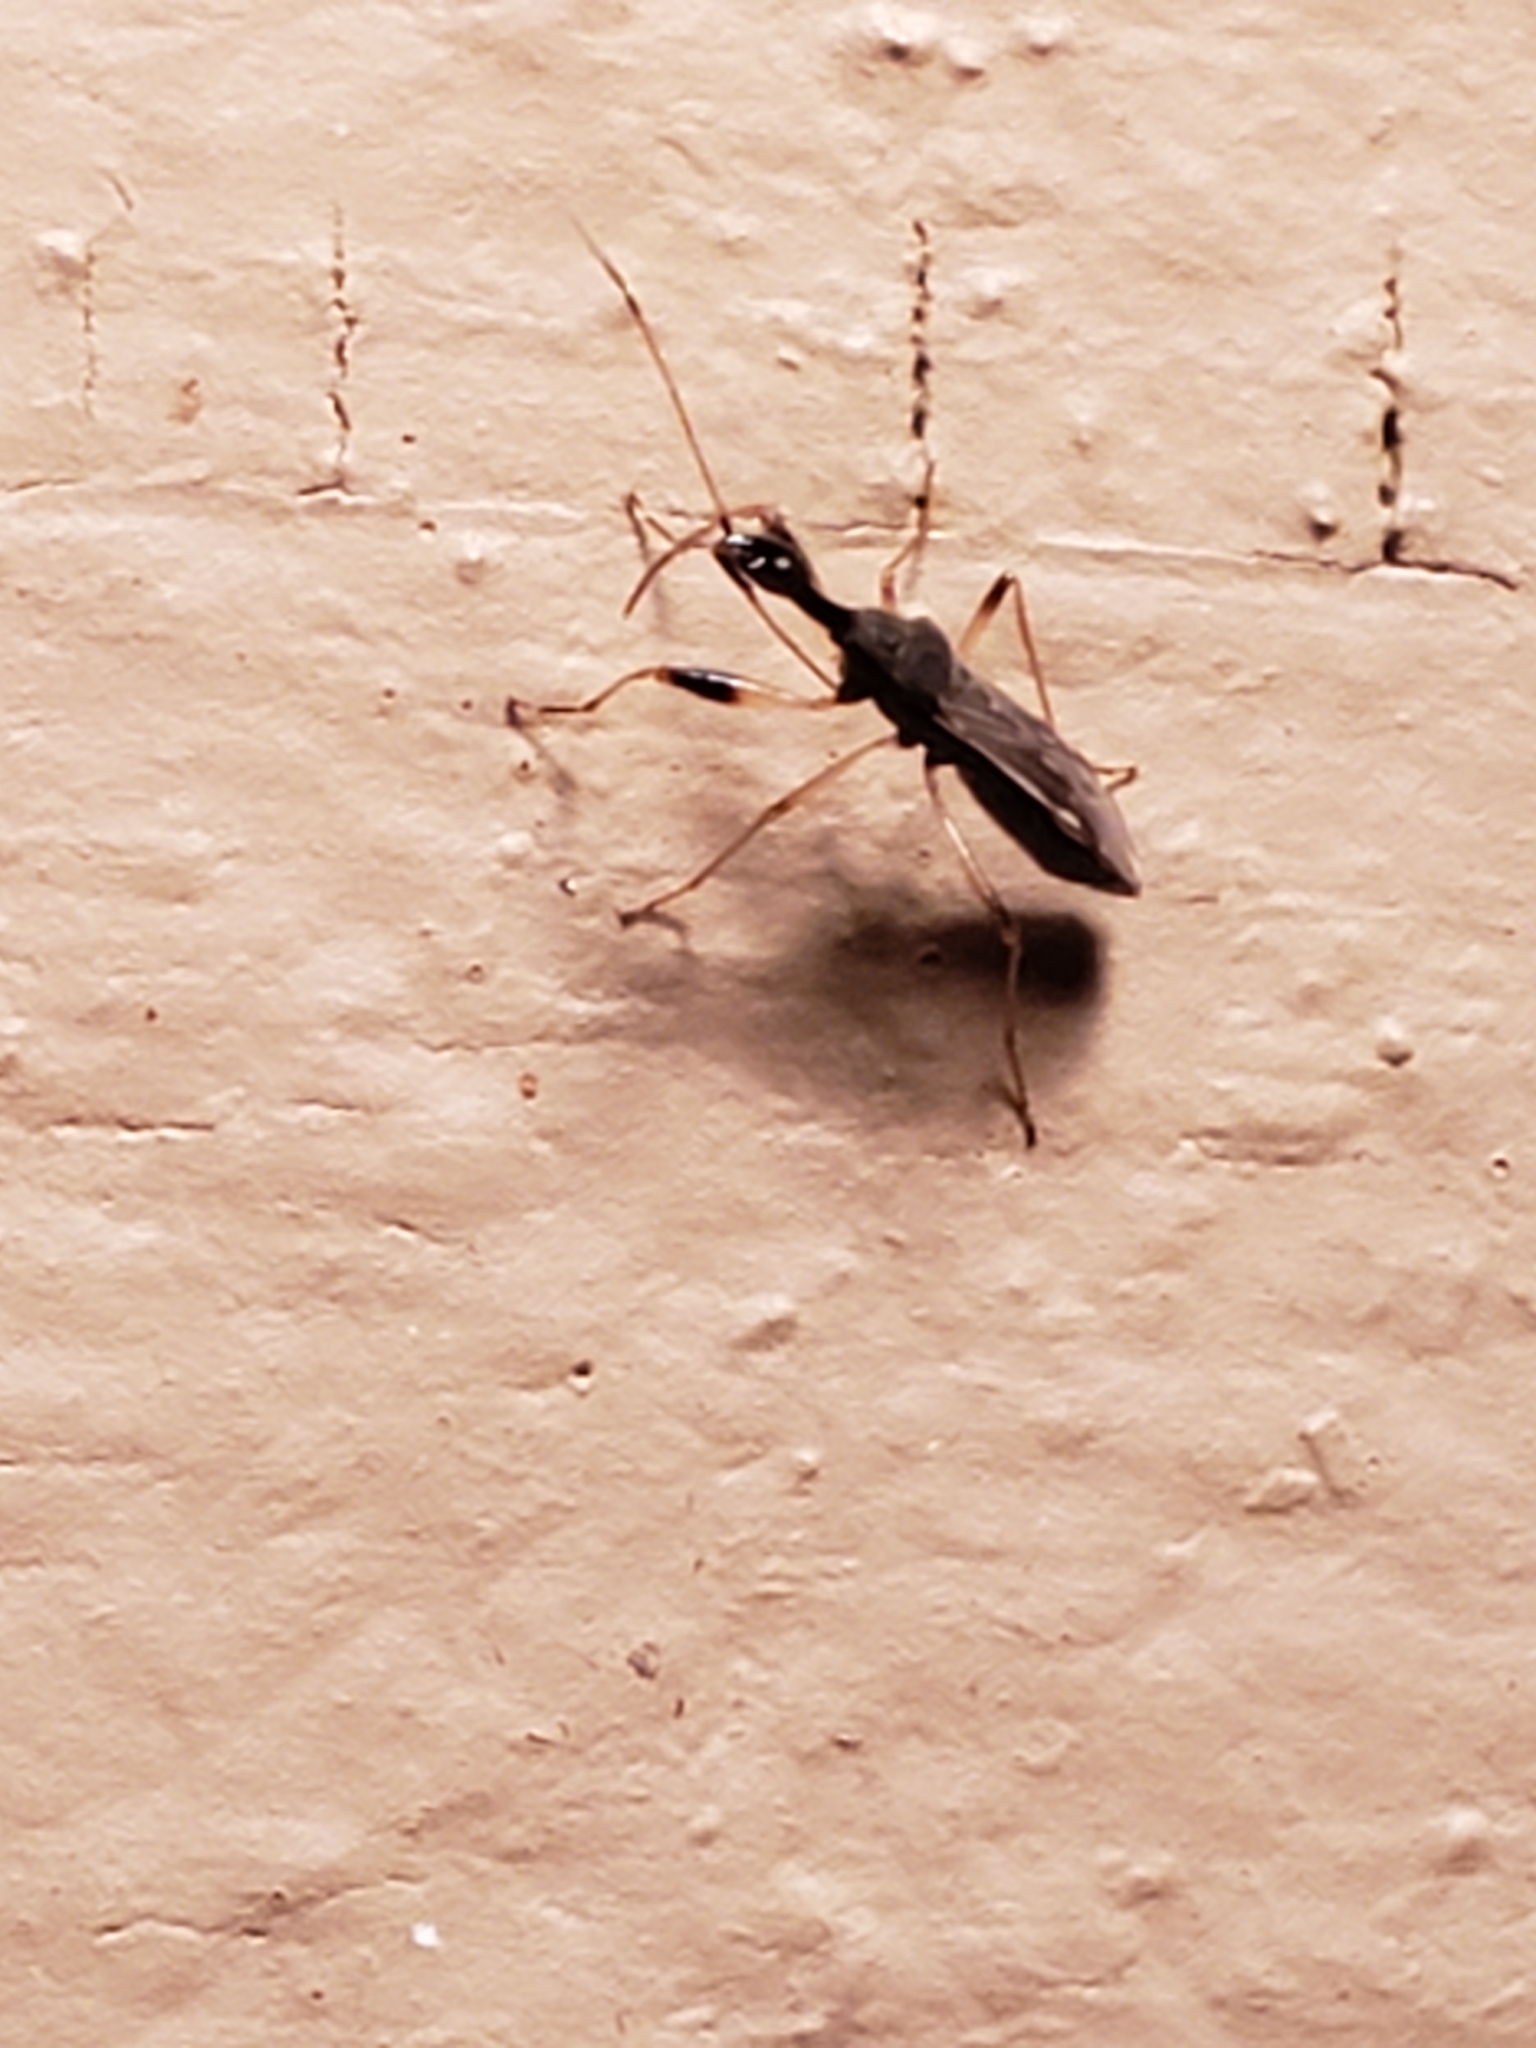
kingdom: Animalia
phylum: Arthropoda
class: Insecta
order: Hemiptera
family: Rhyparochromidae
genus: Myodocha
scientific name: Myodocha serripes
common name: Long-necked seed bug
